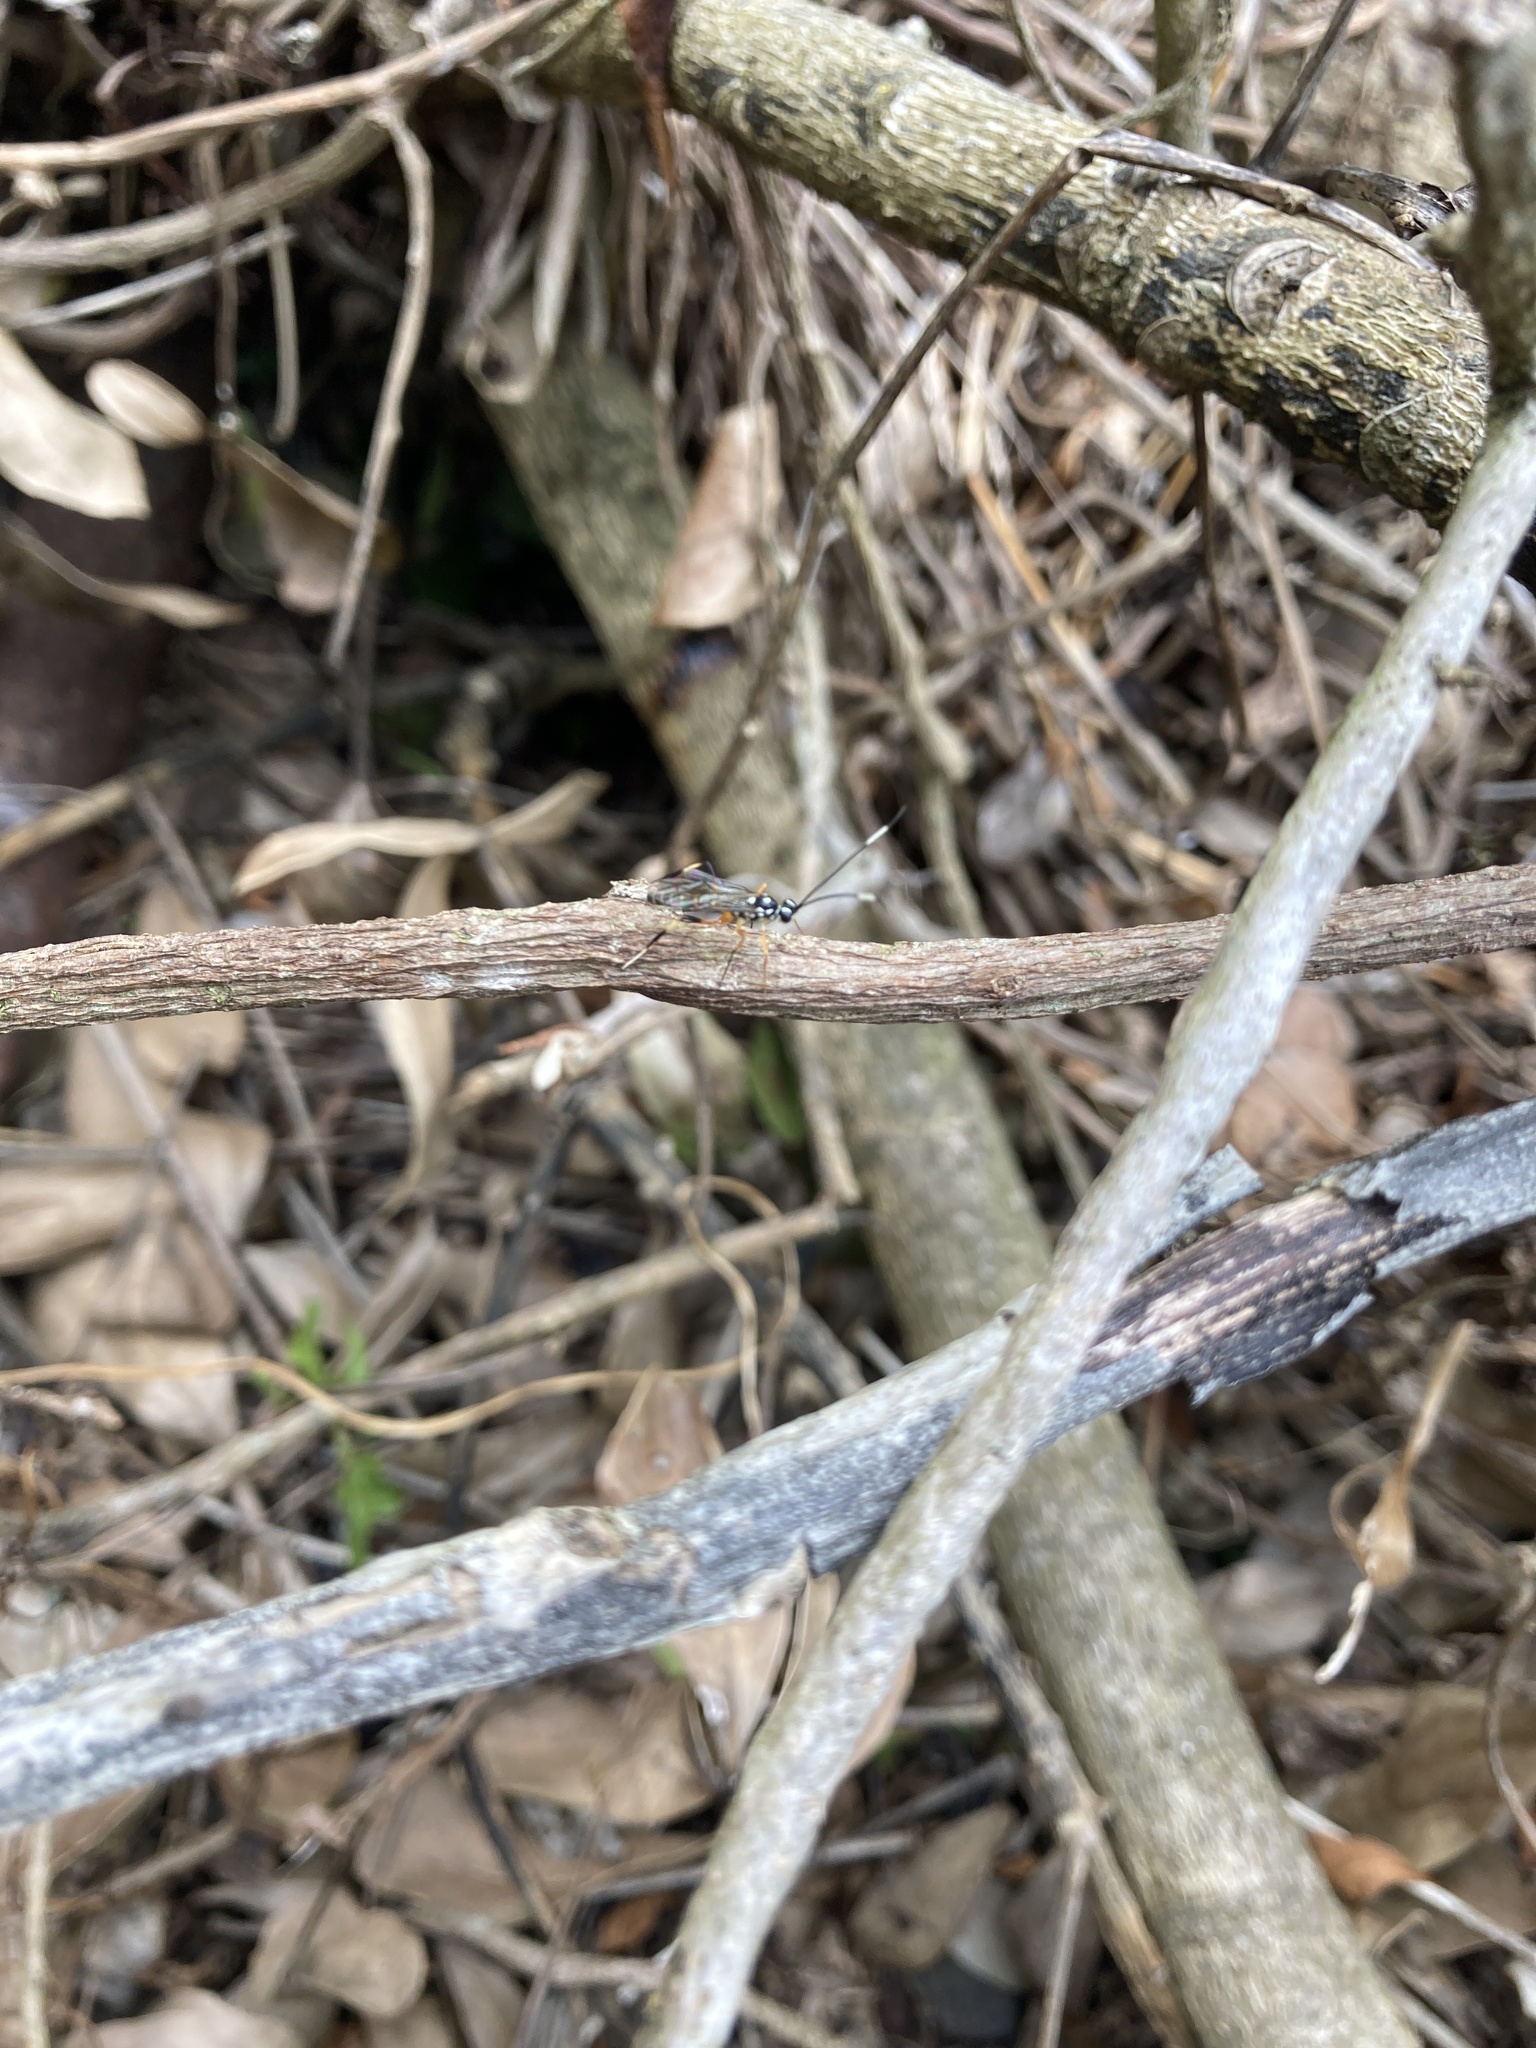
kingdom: Animalia
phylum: Arthropoda
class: Insecta
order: Hymenoptera
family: Ichneumonidae
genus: Xanthocryptus
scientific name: Xanthocryptus novozealandicus
